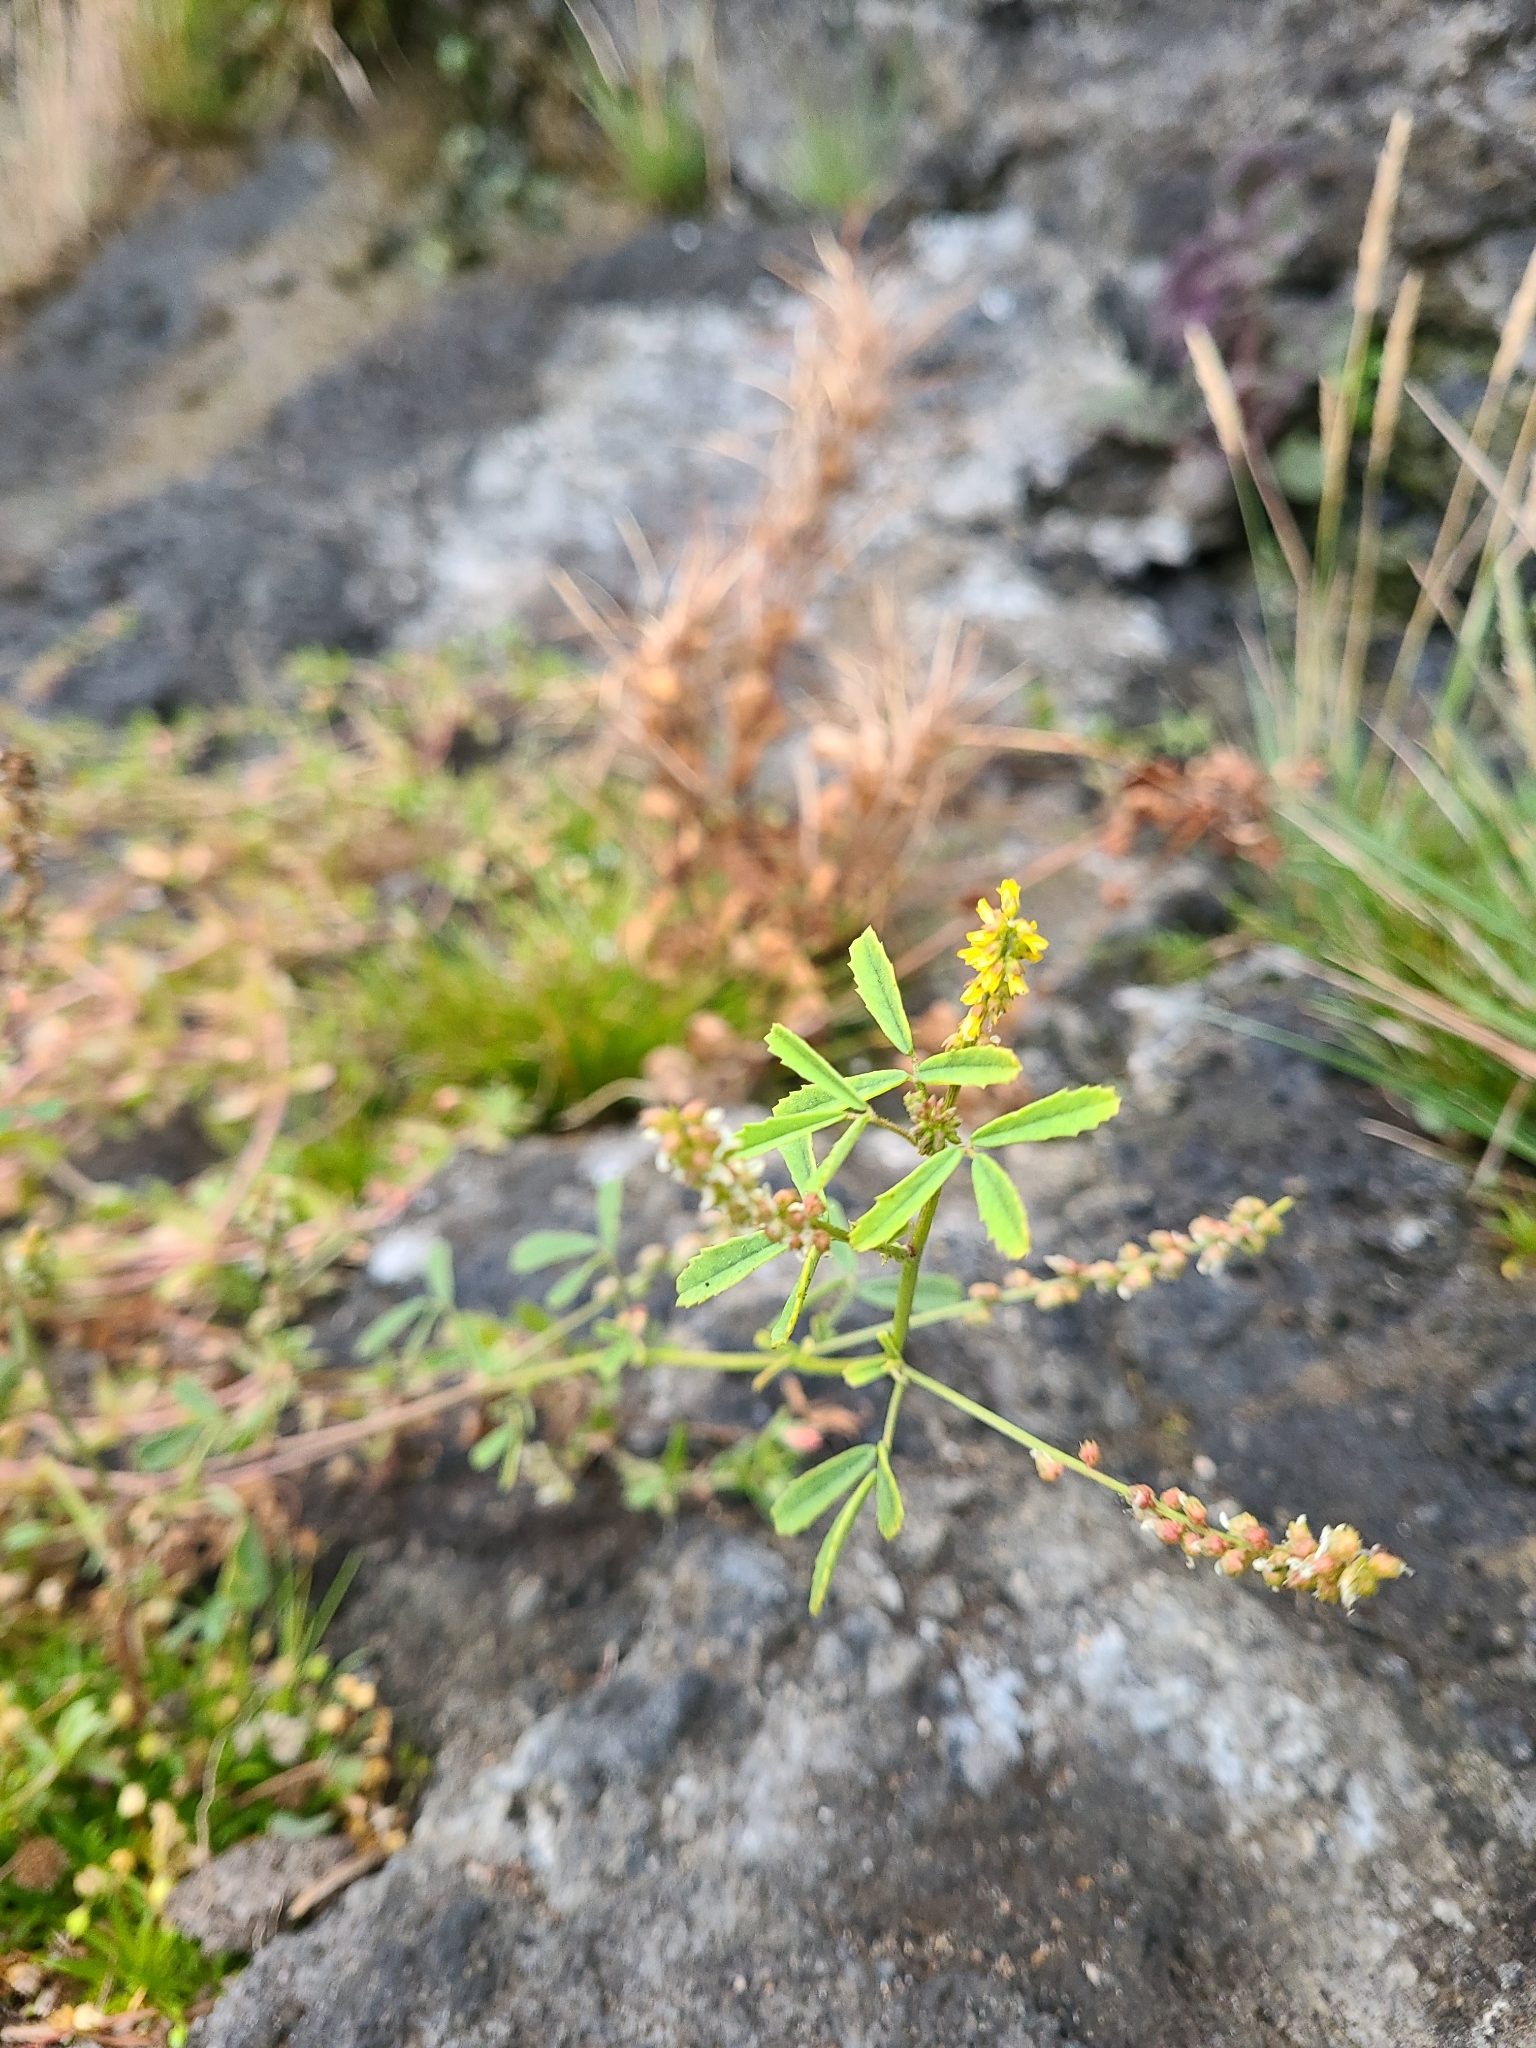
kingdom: Plantae
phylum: Tracheophyta
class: Magnoliopsida
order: Fabales
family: Fabaceae
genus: Melilotus
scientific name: Melilotus indicus
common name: Small melilot
